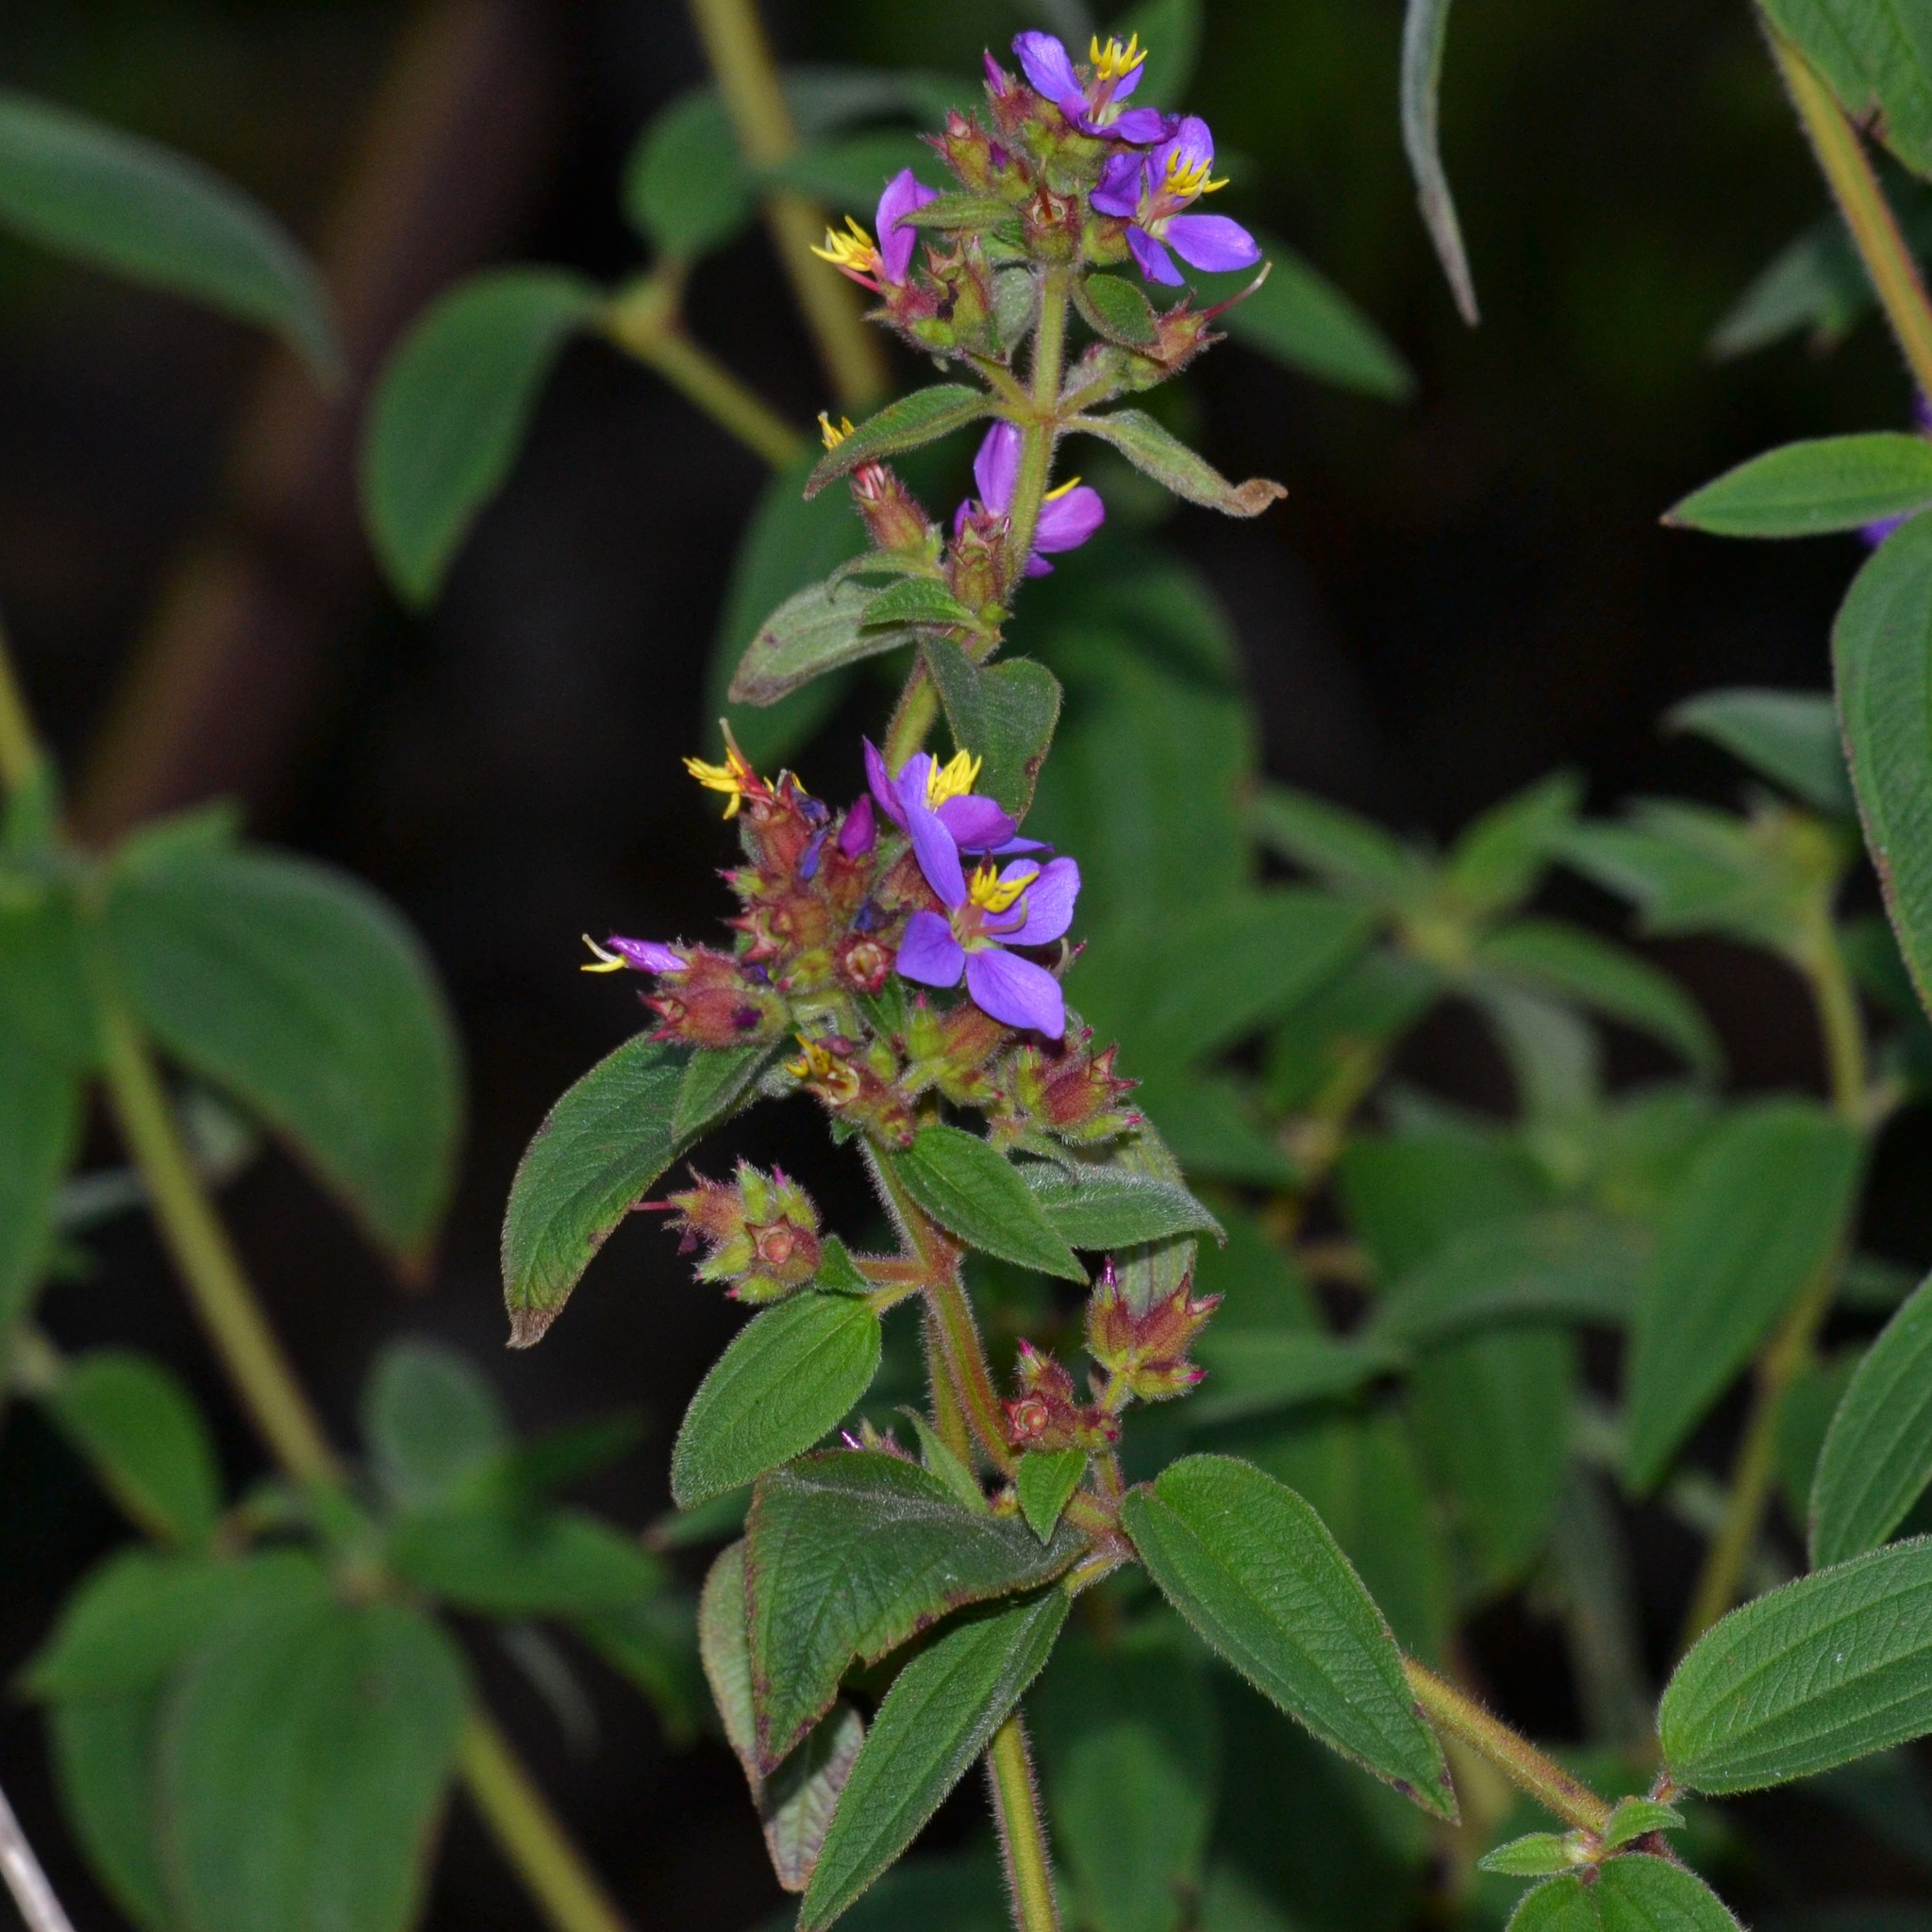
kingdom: Plantae
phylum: Tracheophyta
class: Magnoliopsida
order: Myrtales
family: Melastomataceae
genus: Chaetogastra
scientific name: Chaetogastra herbacea
